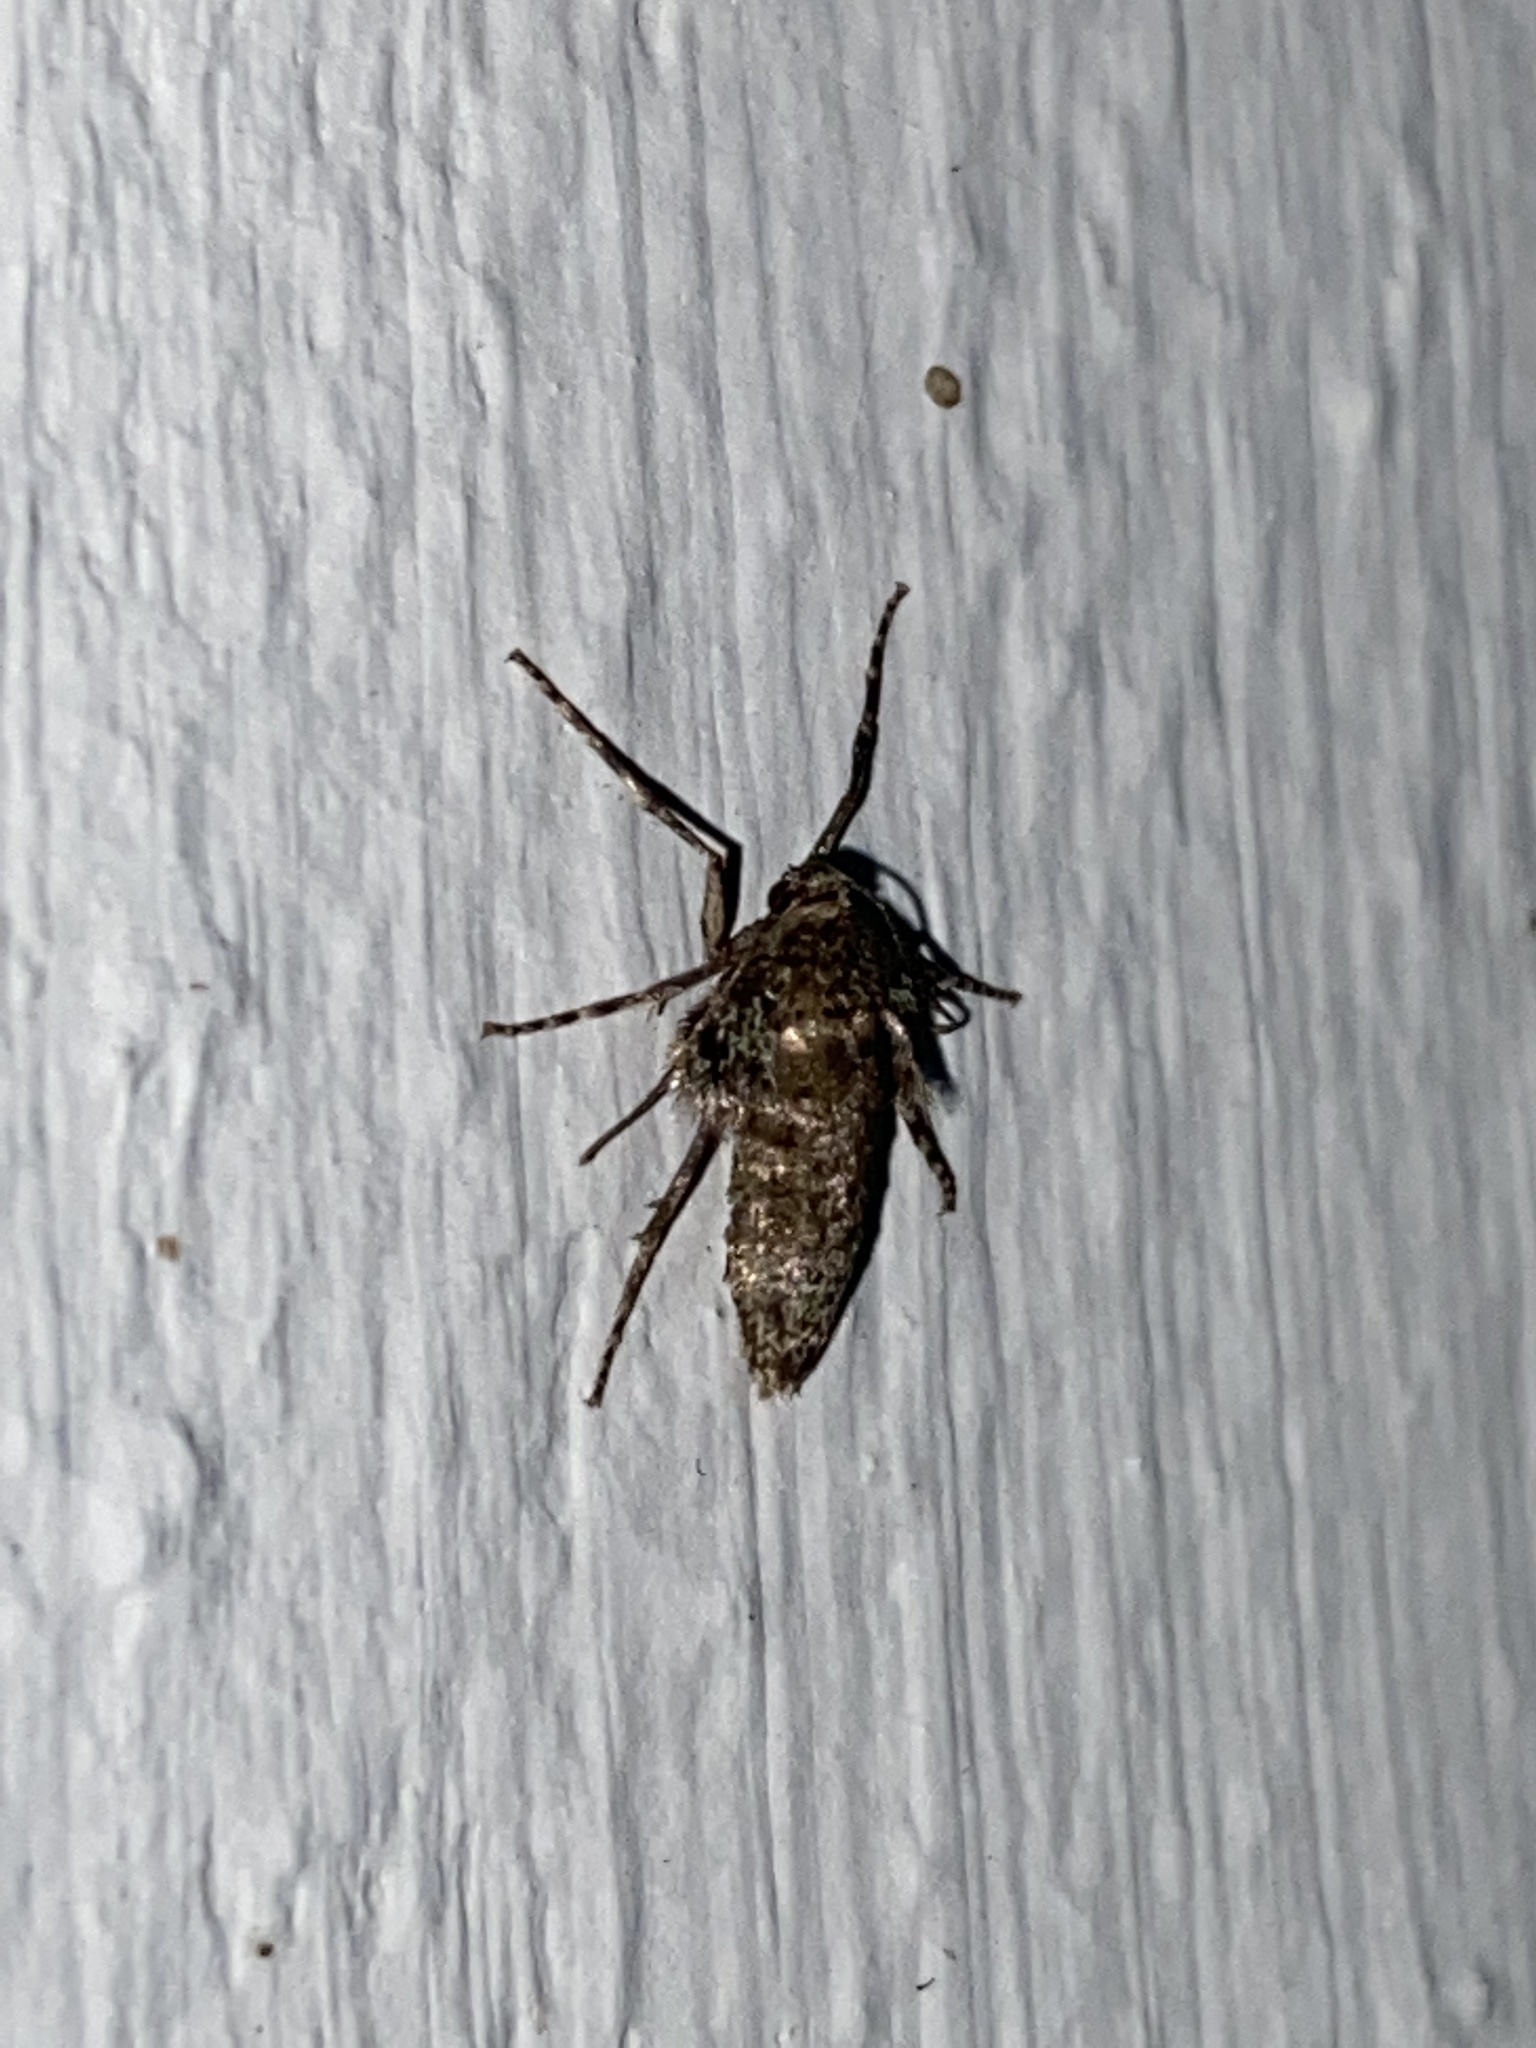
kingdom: Animalia
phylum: Arthropoda
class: Insecta
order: Lepidoptera
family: Geometridae
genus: Operophtera
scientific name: Operophtera brumata
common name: Winter moth
